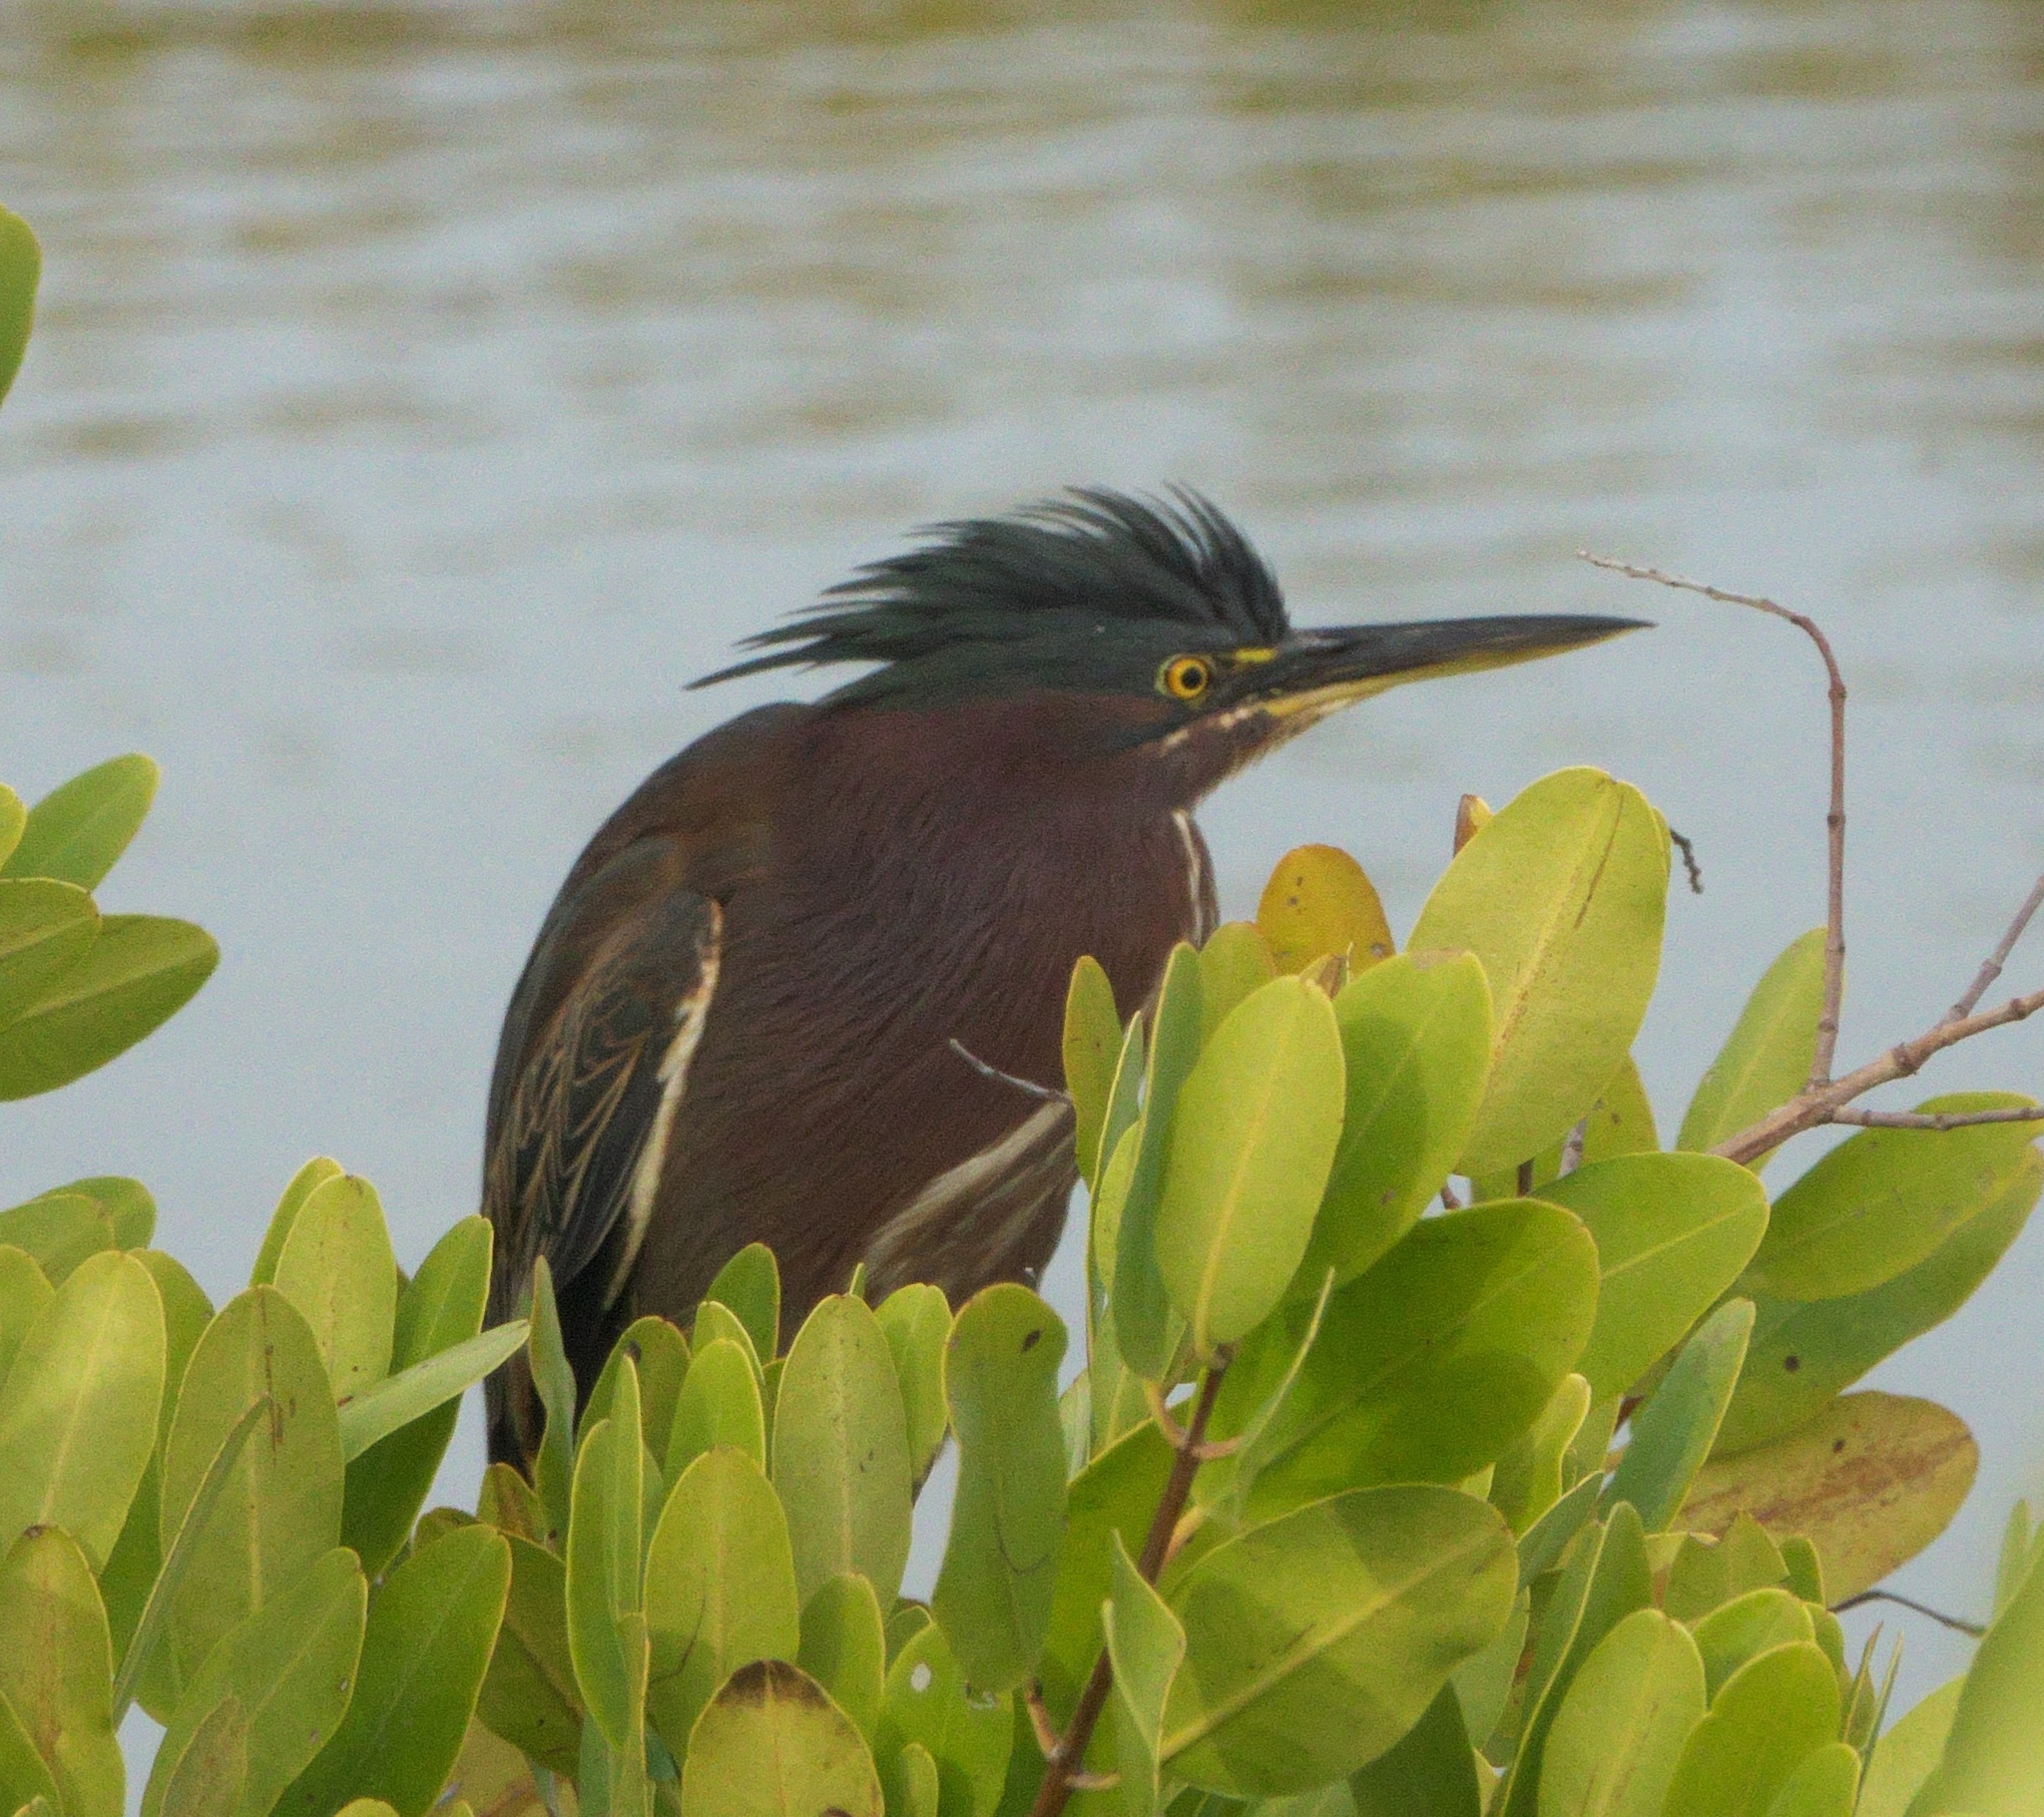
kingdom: Animalia
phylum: Chordata
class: Aves
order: Pelecaniformes
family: Ardeidae
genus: Butorides
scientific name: Butorides virescens
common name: Green heron
